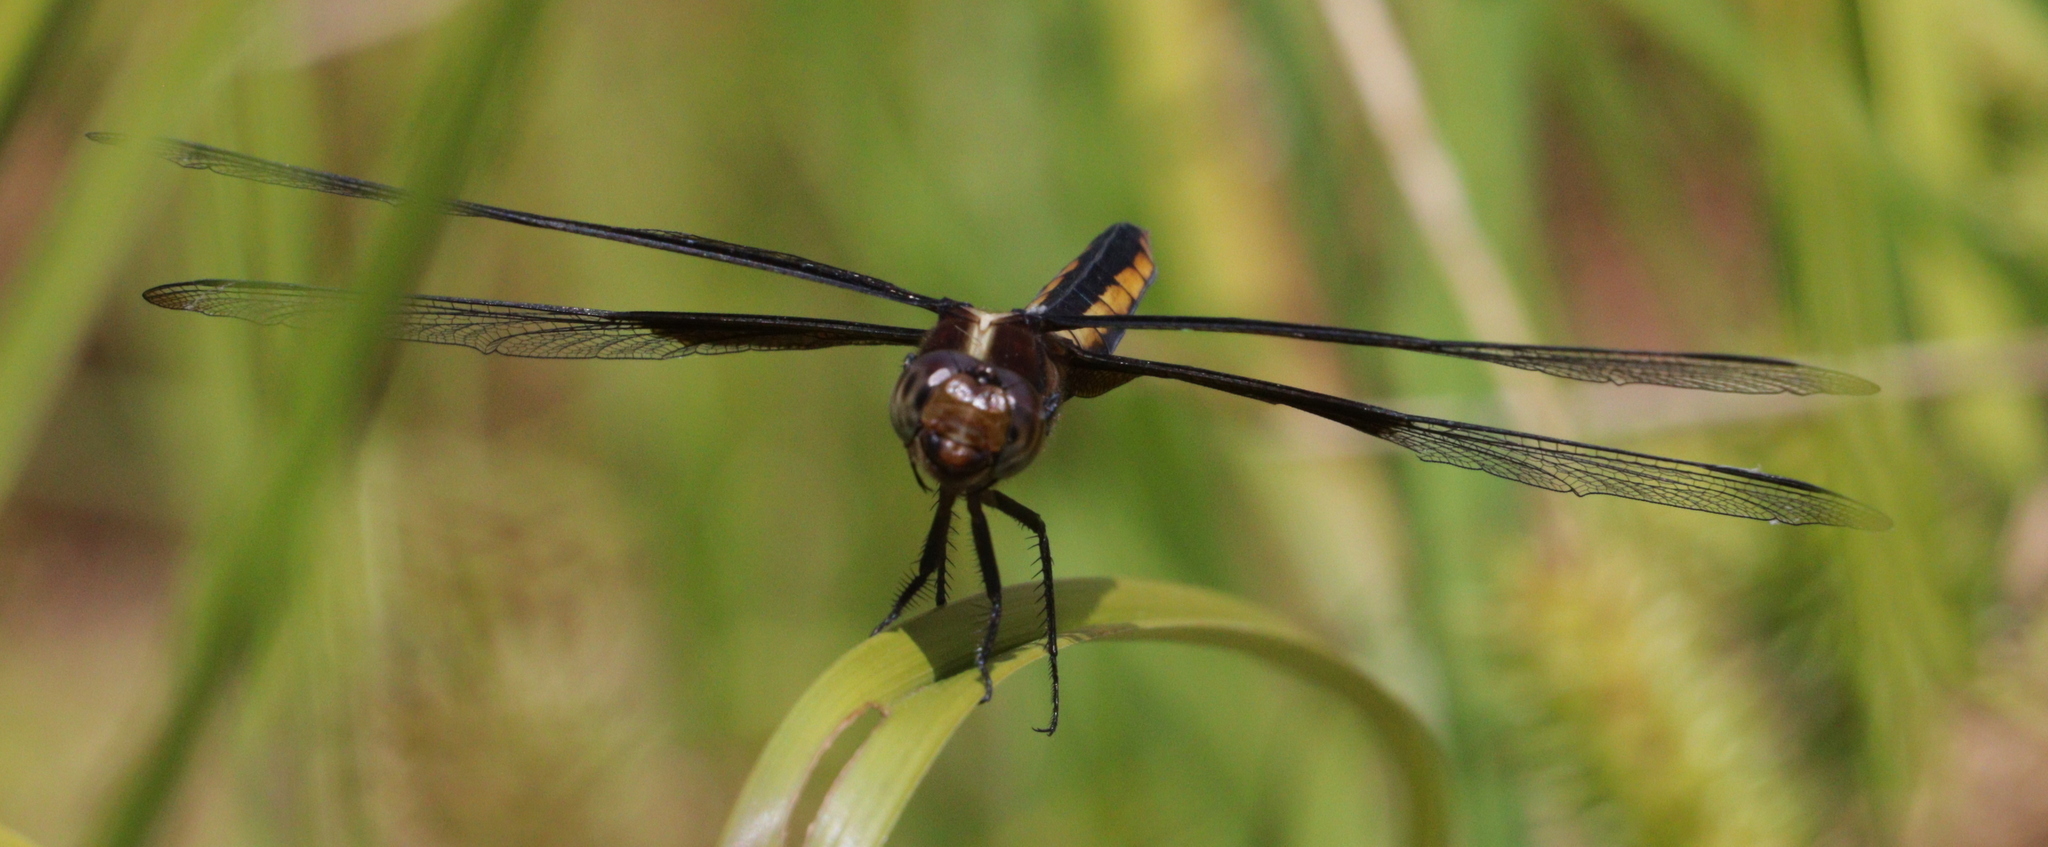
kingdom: Animalia
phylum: Arthropoda
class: Insecta
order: Odonata
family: Libellulidae
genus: Libellula
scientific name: Libellula luctuosa
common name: Widow skimmer
